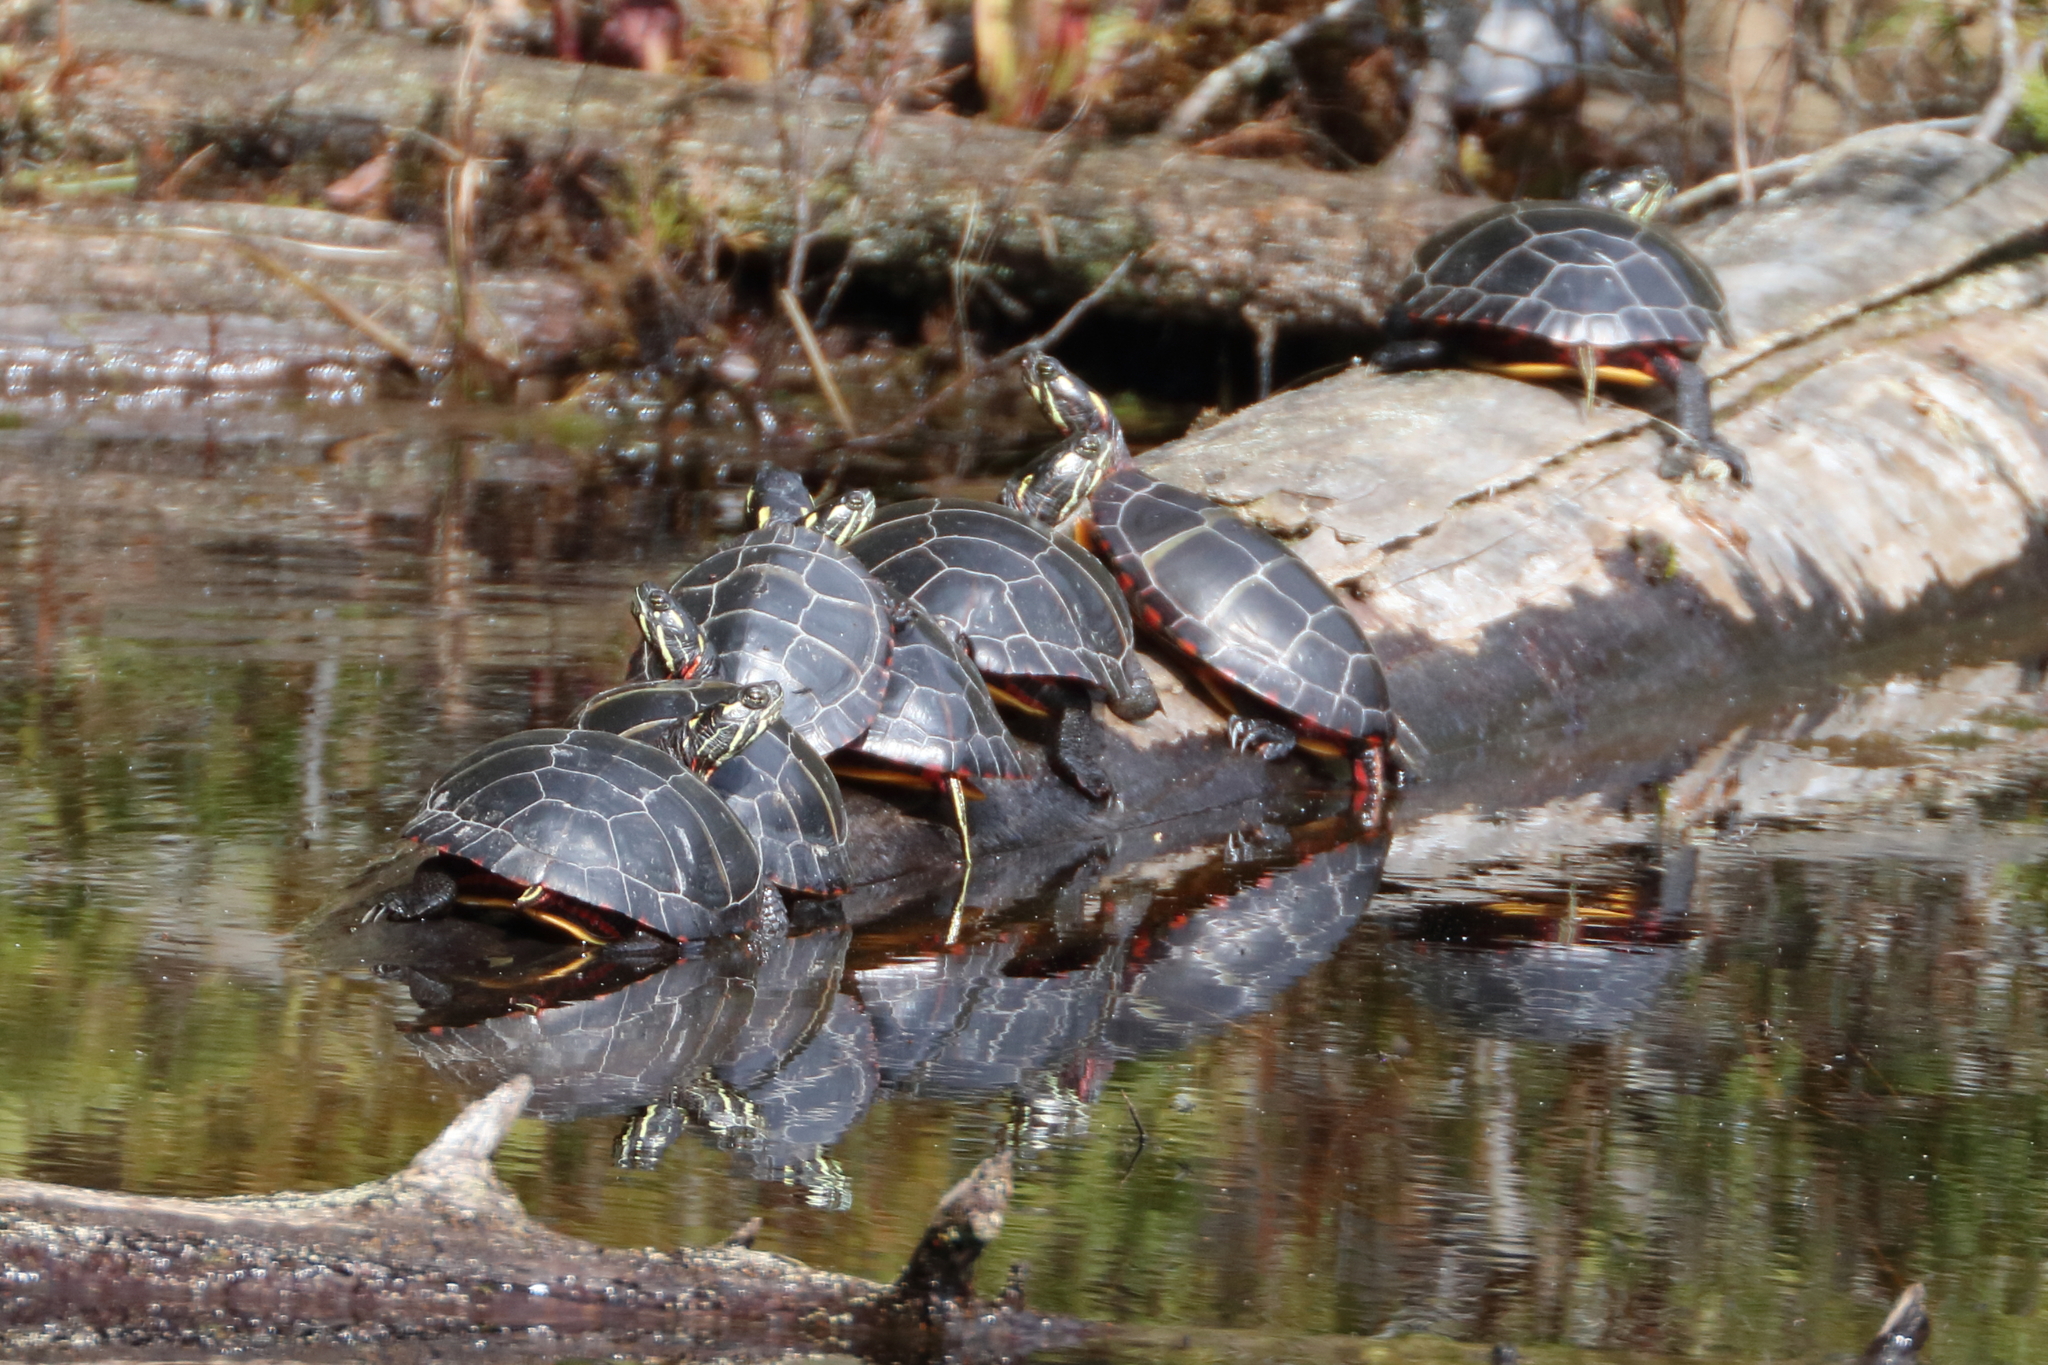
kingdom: Animalia
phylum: Chordata
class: Testudines
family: Emydidae
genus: Chrysemys
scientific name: Chrysemys picta
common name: Painted turtle
